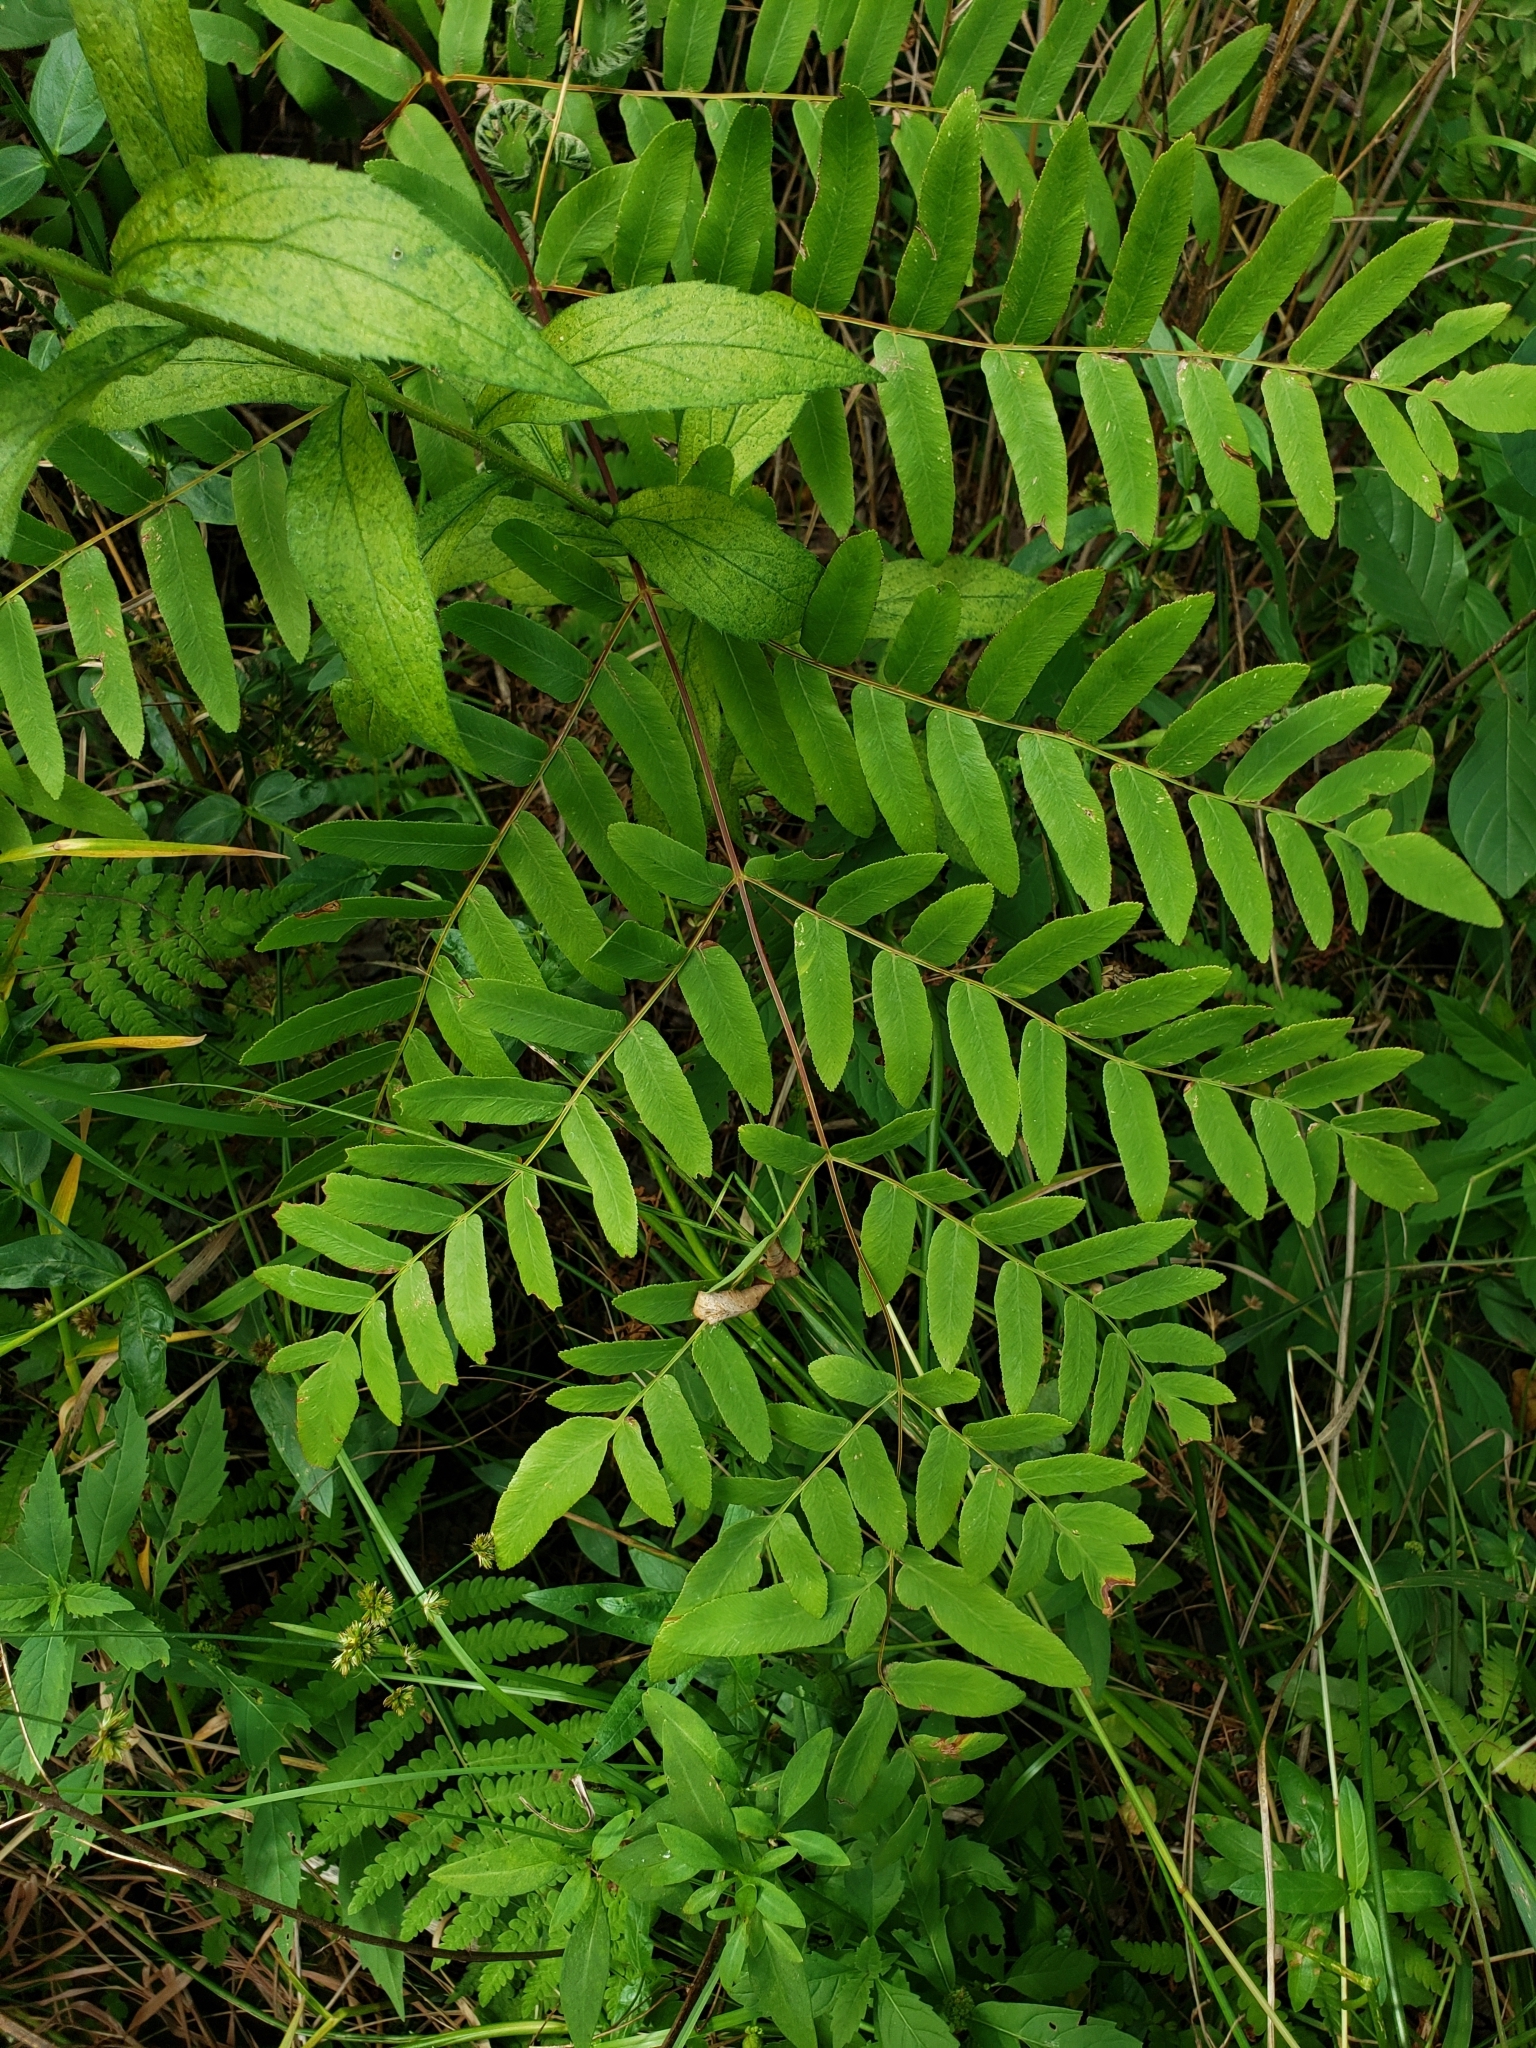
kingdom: Plantae
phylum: Tracheophyta
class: Polypodiopsida
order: Osmundales
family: Osmundaceae
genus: Osmunda
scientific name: Osmunda spectabilis
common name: American royal fern
